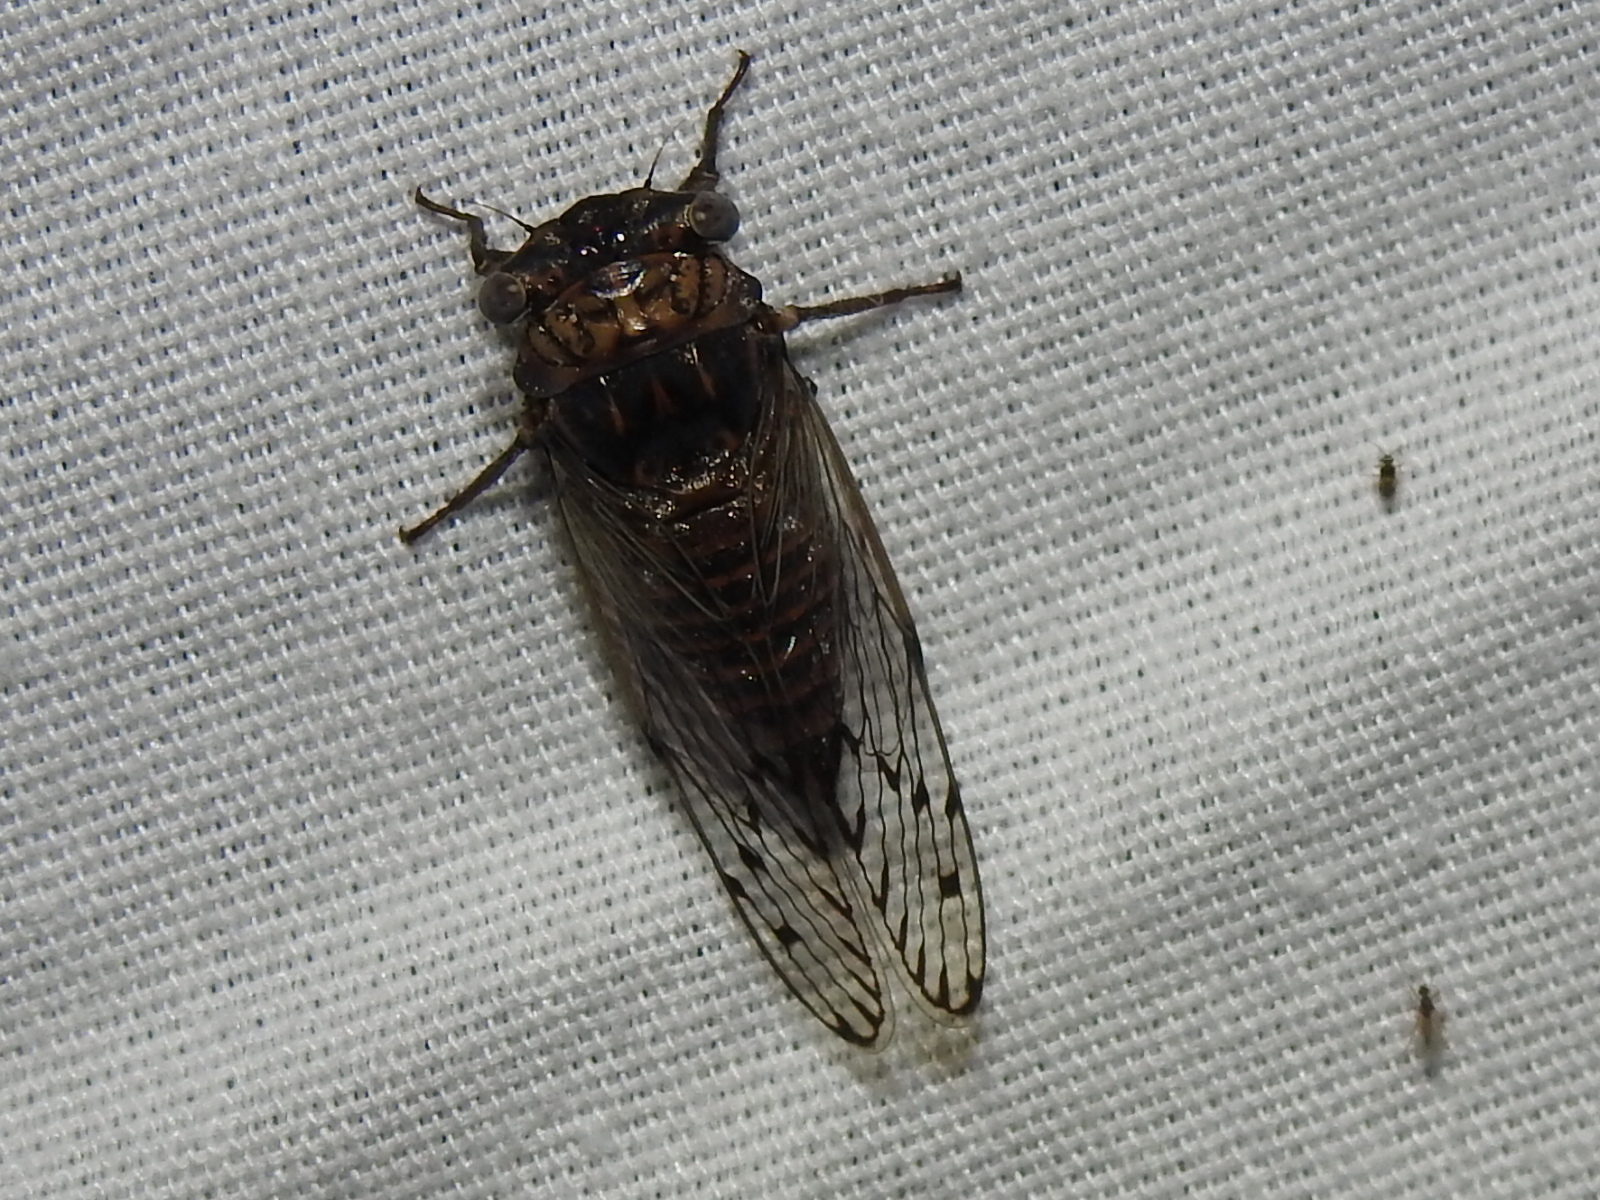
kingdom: Animalia
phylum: Arthropoda
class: Insecta
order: Hemiptera
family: Cicadidae
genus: Pacarina
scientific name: Pacarina puella
